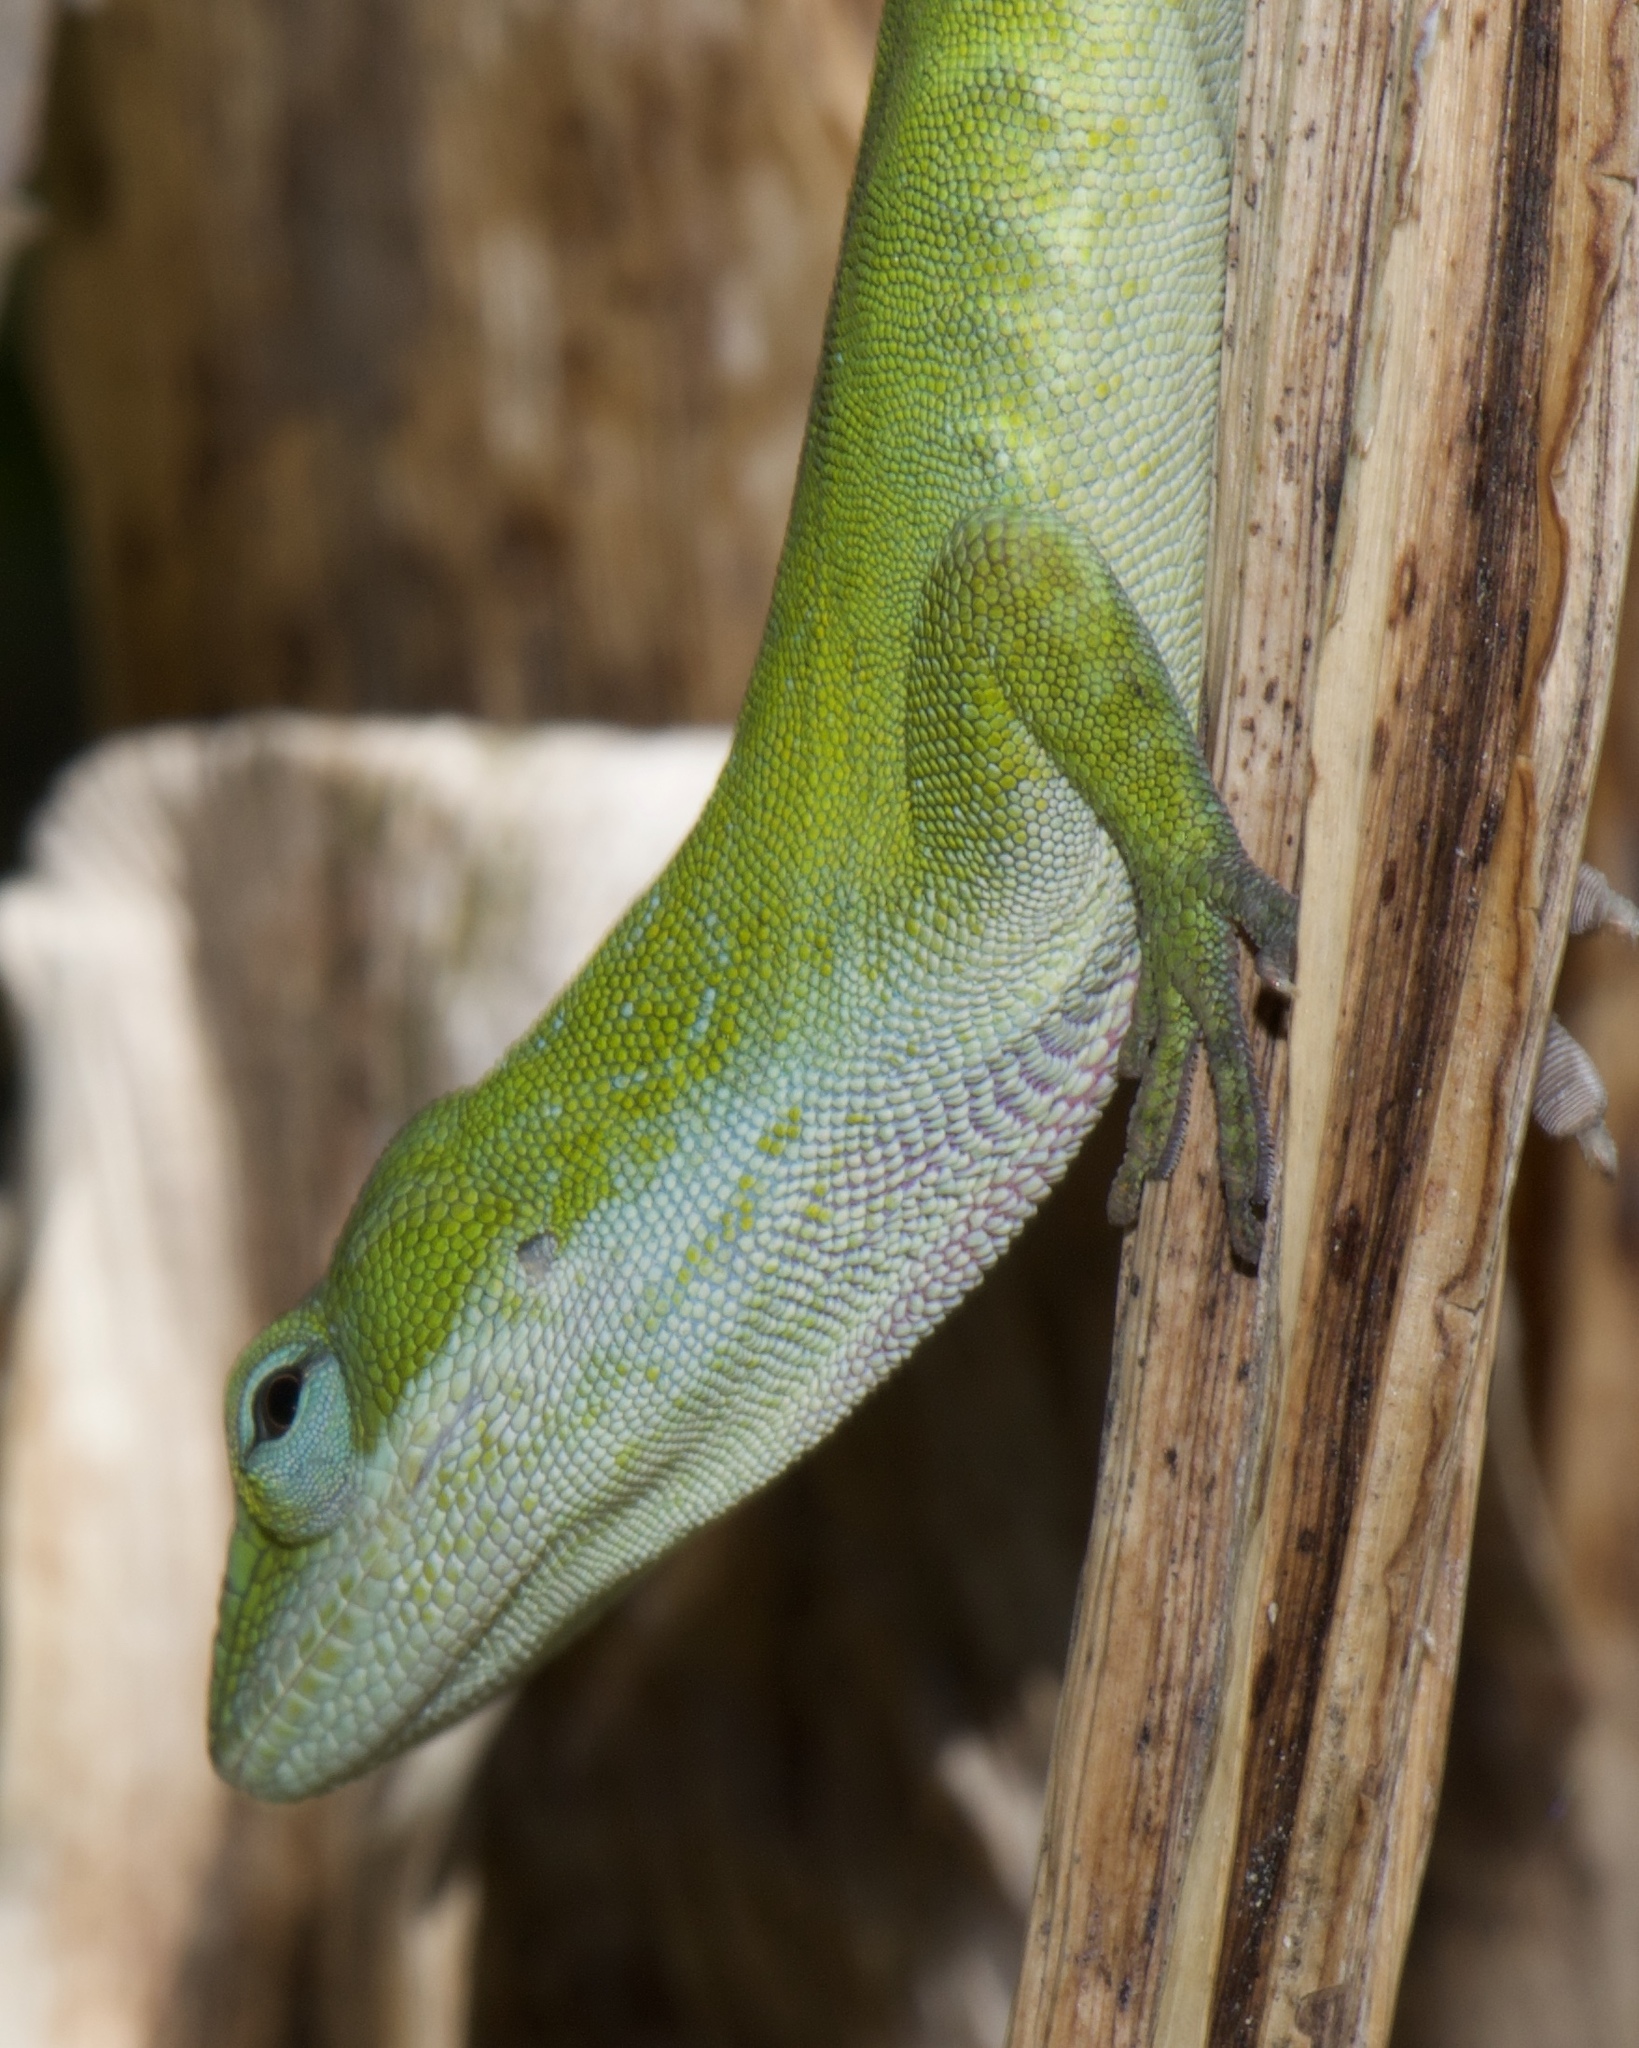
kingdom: Animalia
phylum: Chordata
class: Squamata
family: Dactyloidae
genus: Anolis
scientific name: Anolis carolinensis
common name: Green anole
